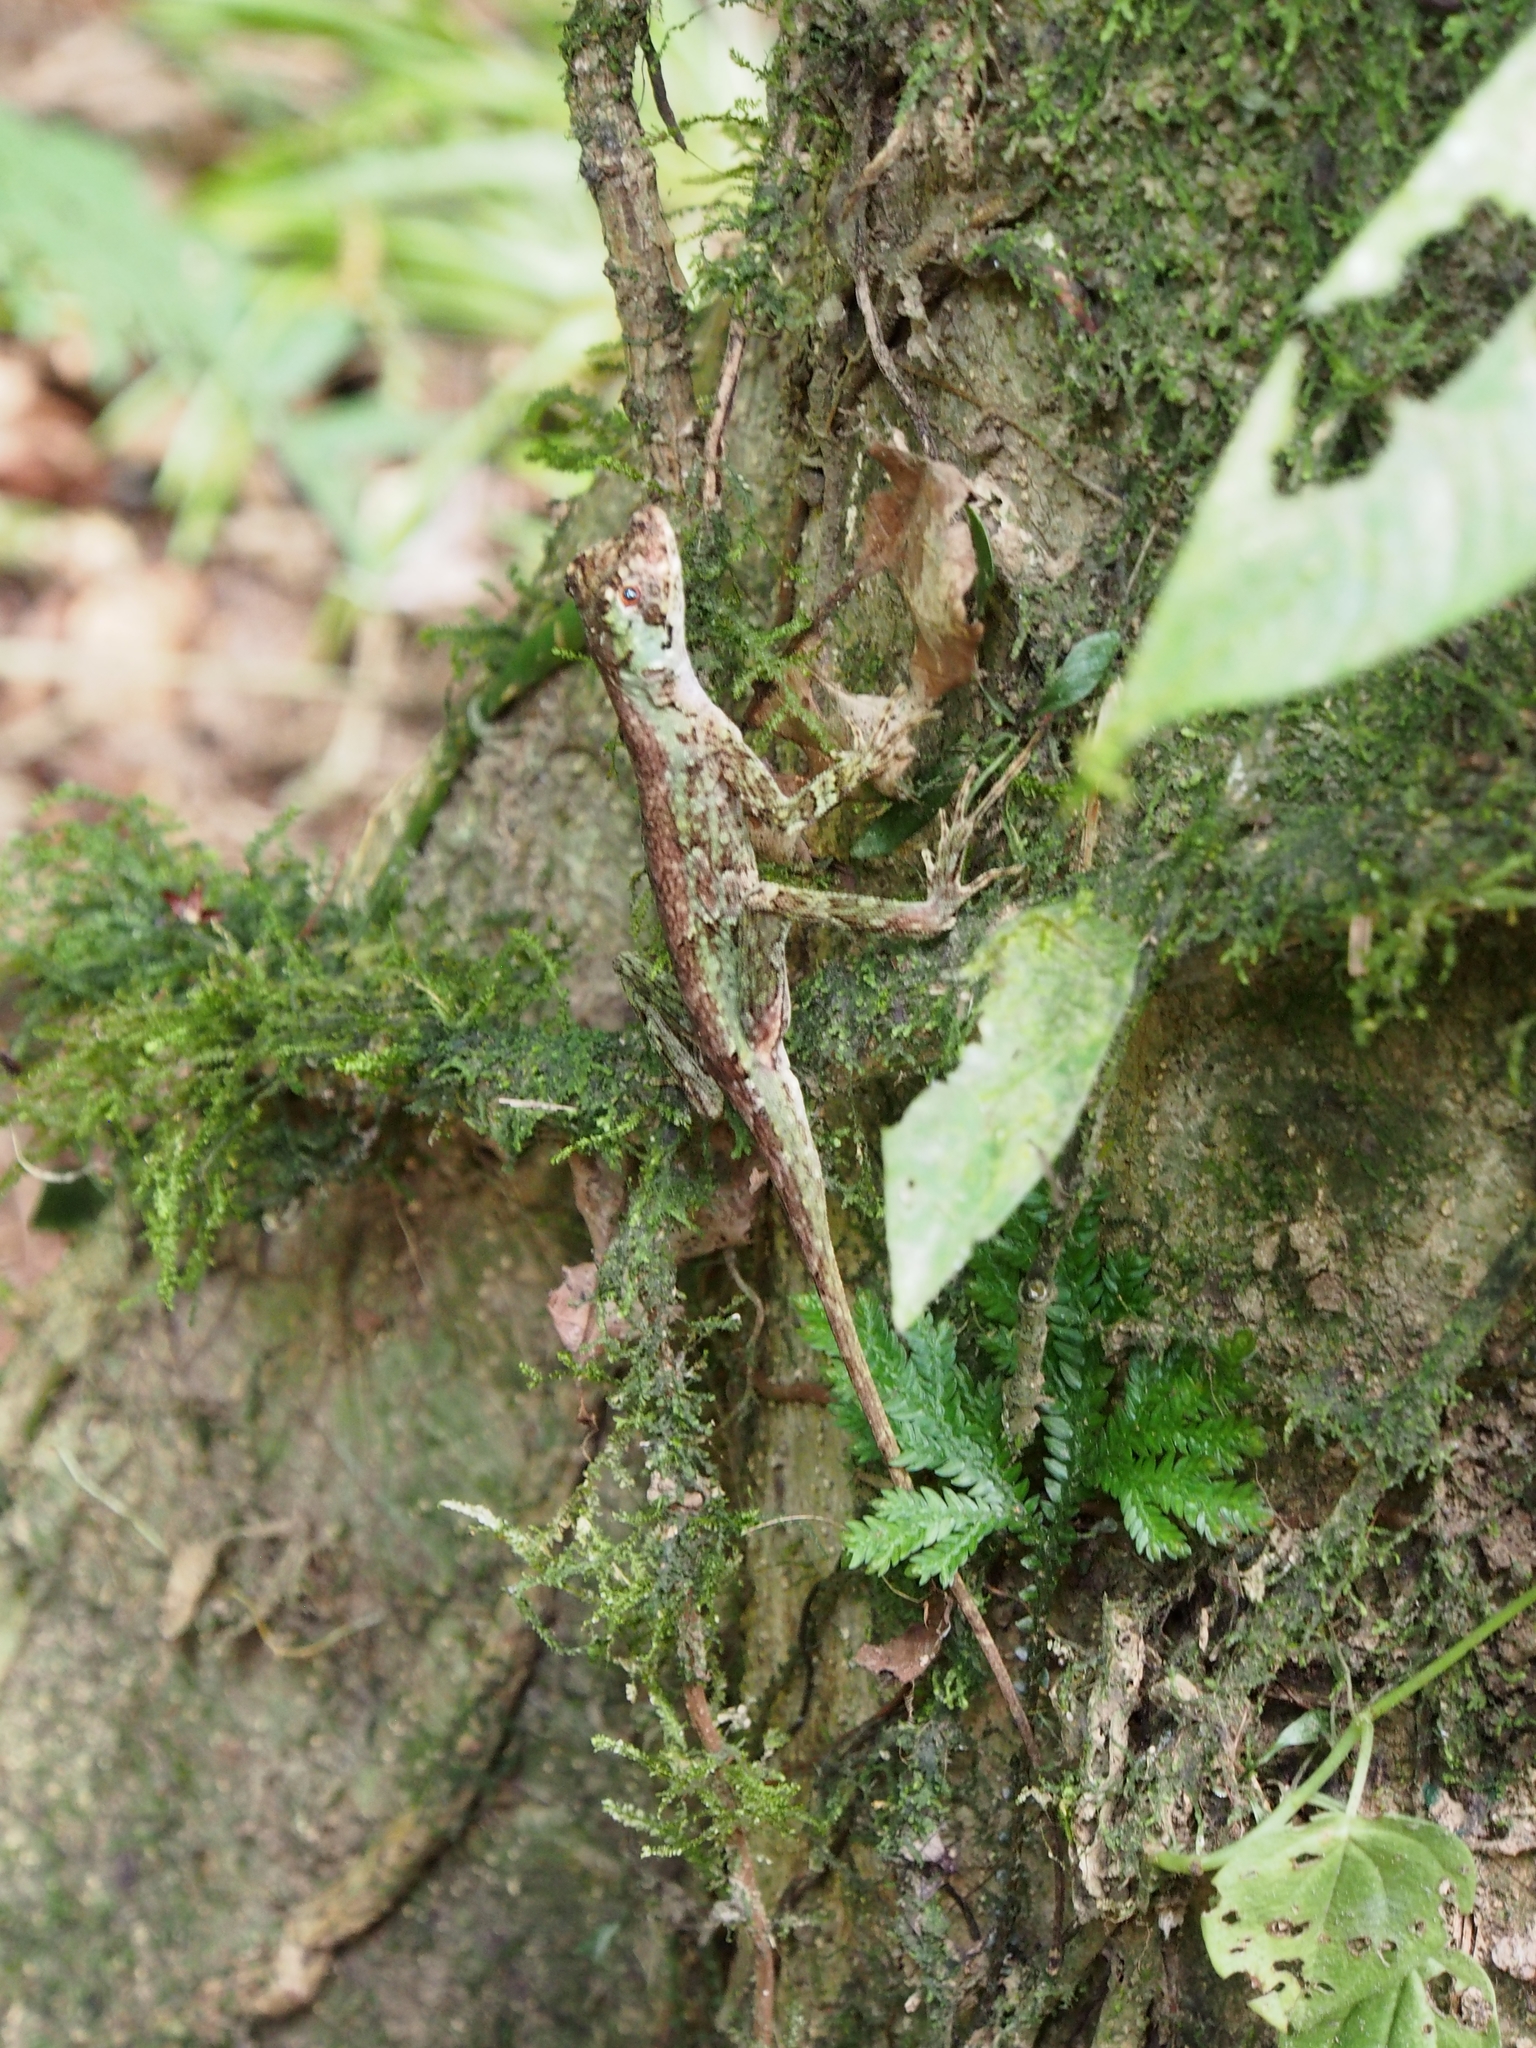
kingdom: Animalia
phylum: Chordata
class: Squamata
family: Dactyloidae
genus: Anolis
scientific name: Anolis capito
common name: Bighead anole
